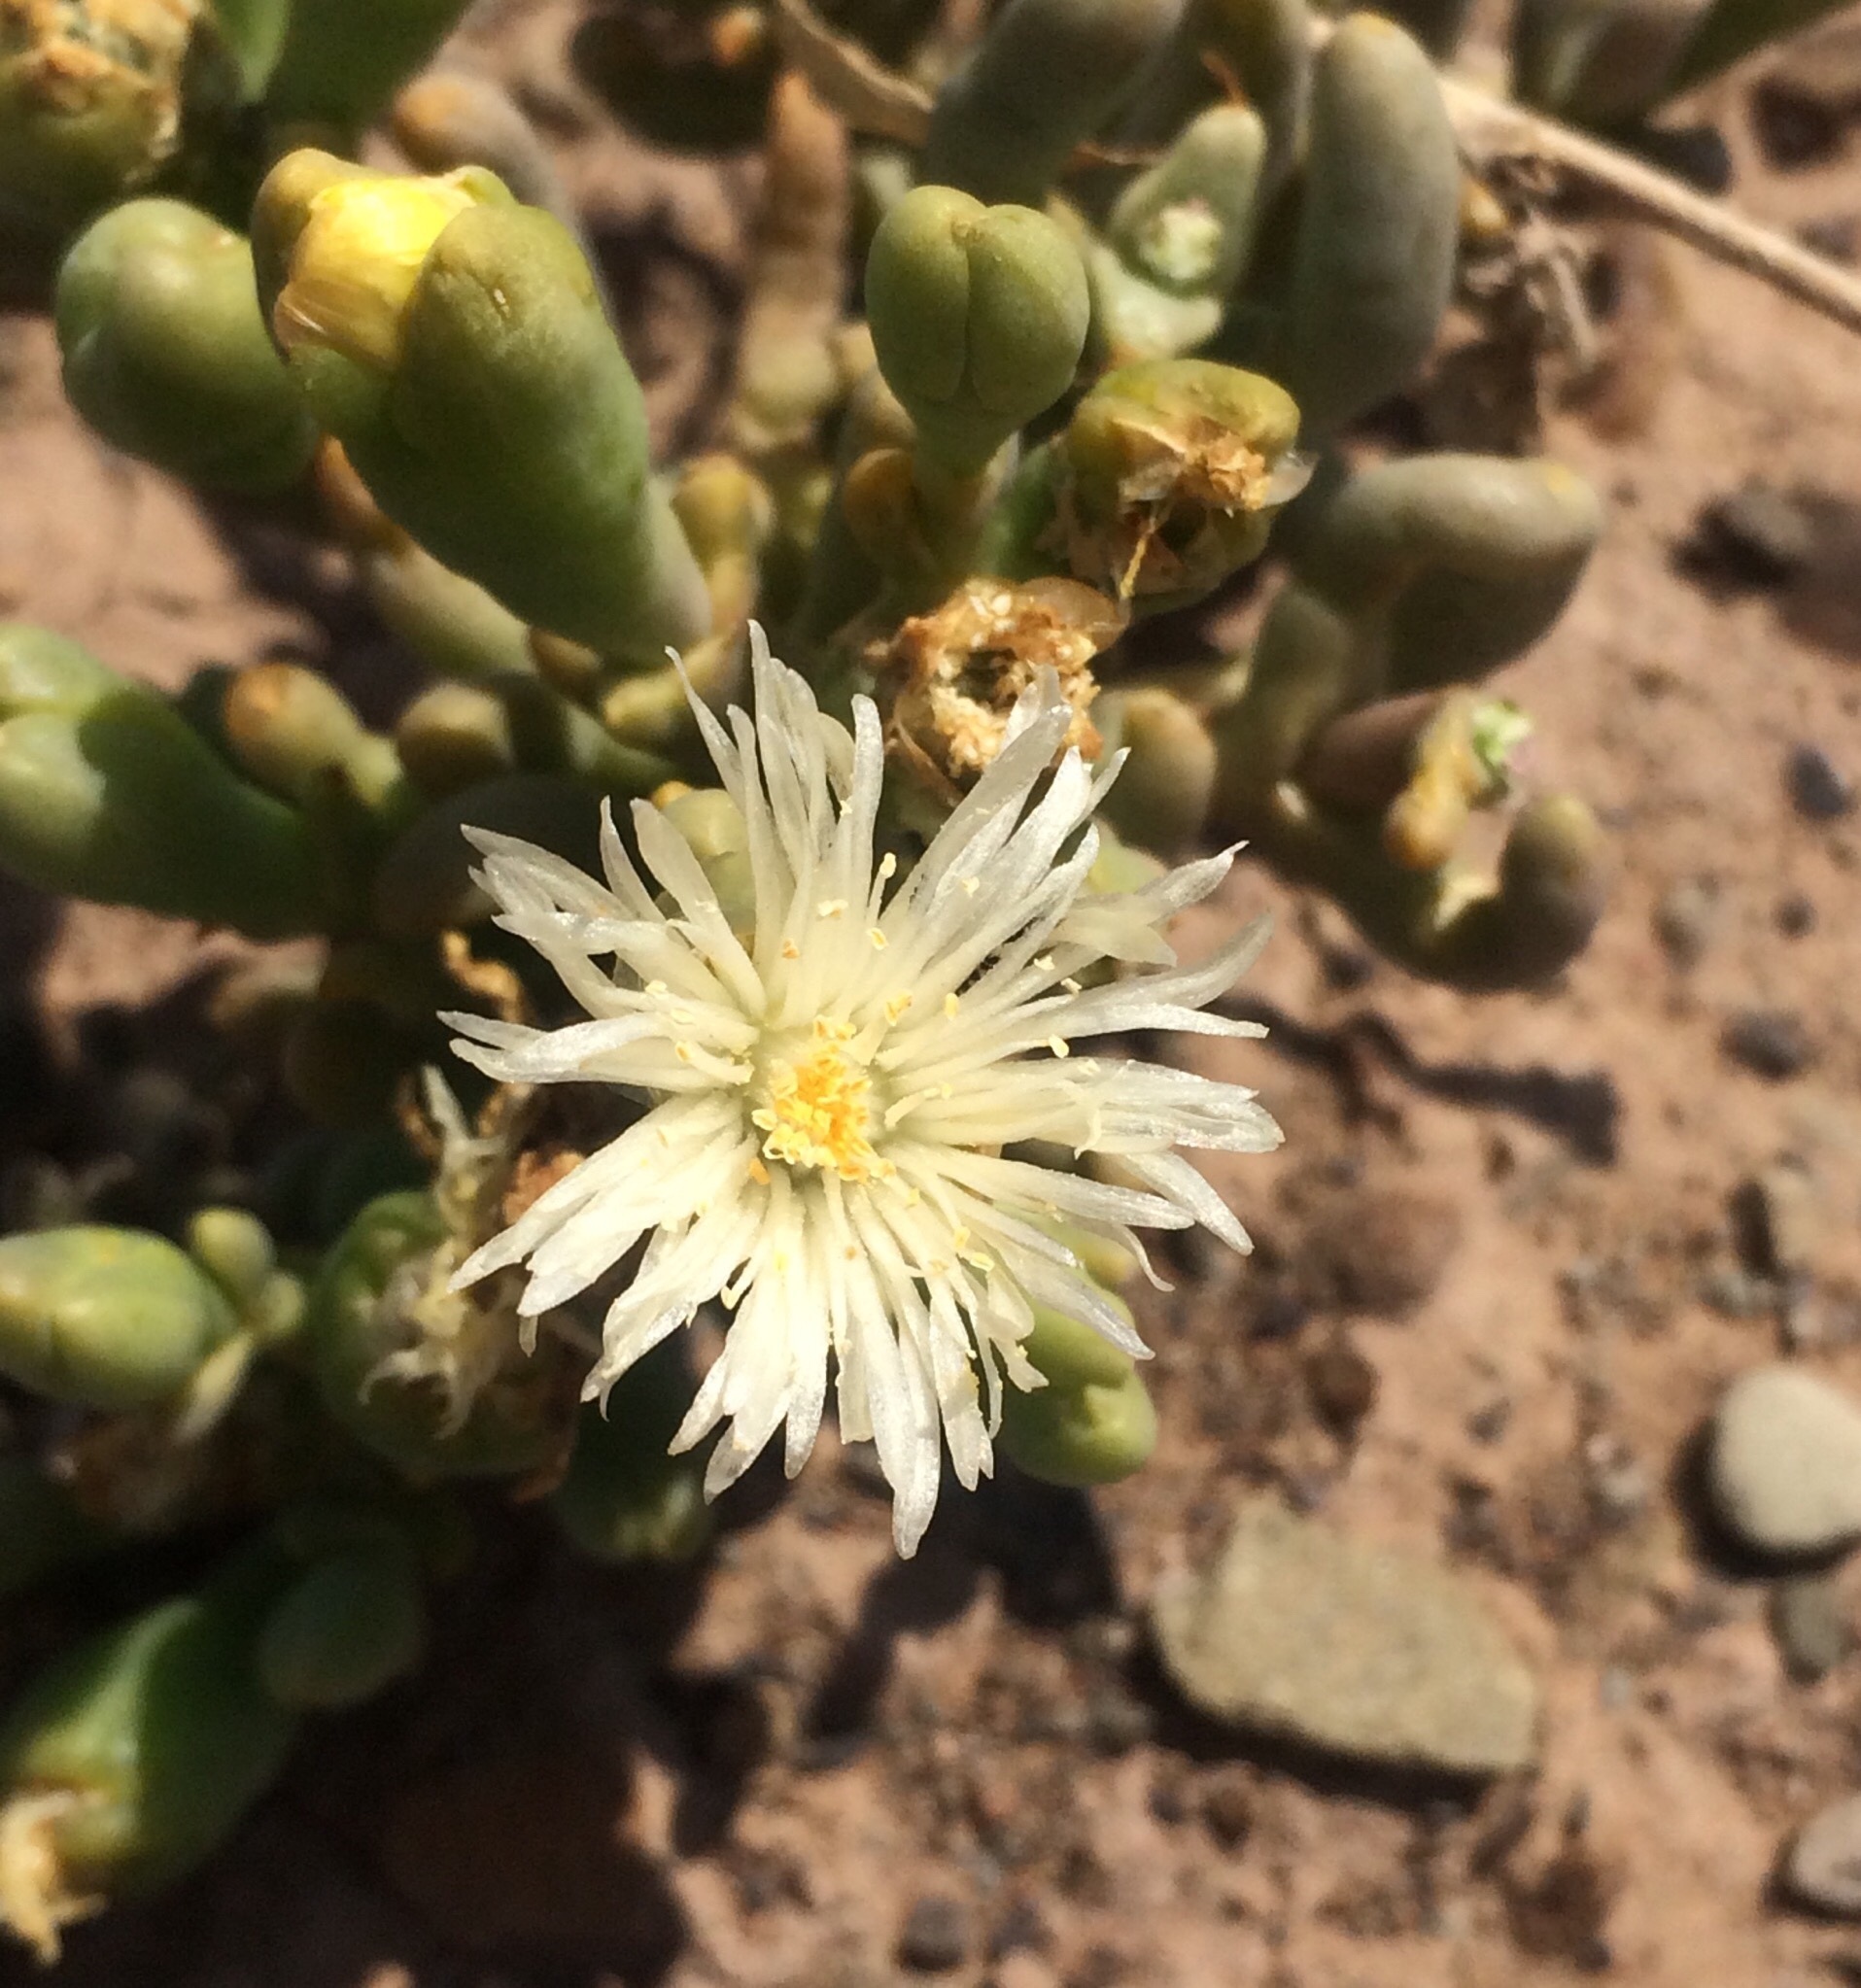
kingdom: Plantae
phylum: Tracheophyta
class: Magnoliopsida
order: Caryophyllales
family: Aizoaceae
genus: Mesembryanthemum
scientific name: Mesembryanthemum noctiflorum
